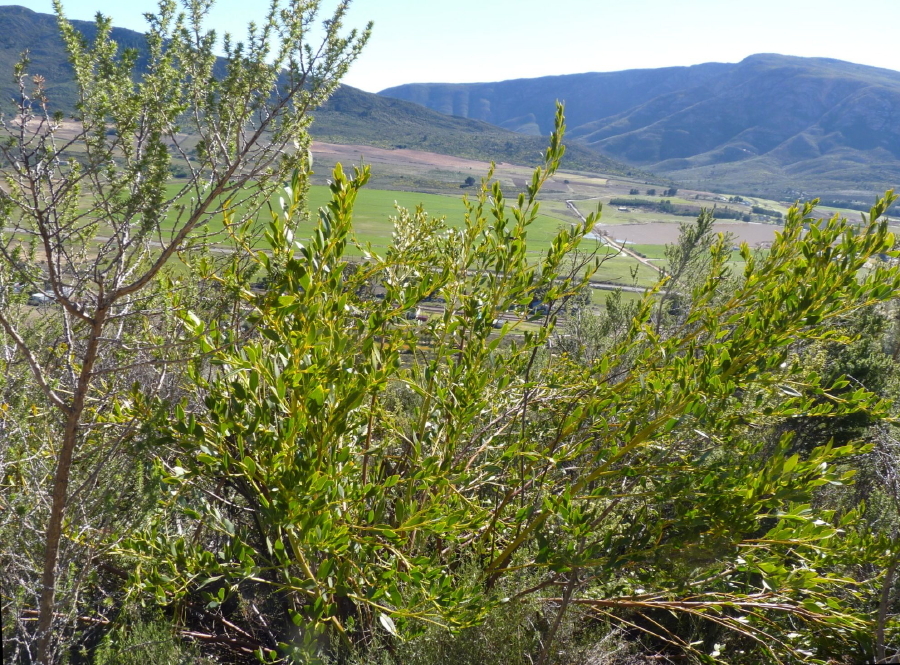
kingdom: Plantae
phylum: Tracheophyta
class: Magnoliopsida
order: Fabales
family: Fabaceae
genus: Rafnia
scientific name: Rafnia vlokii
